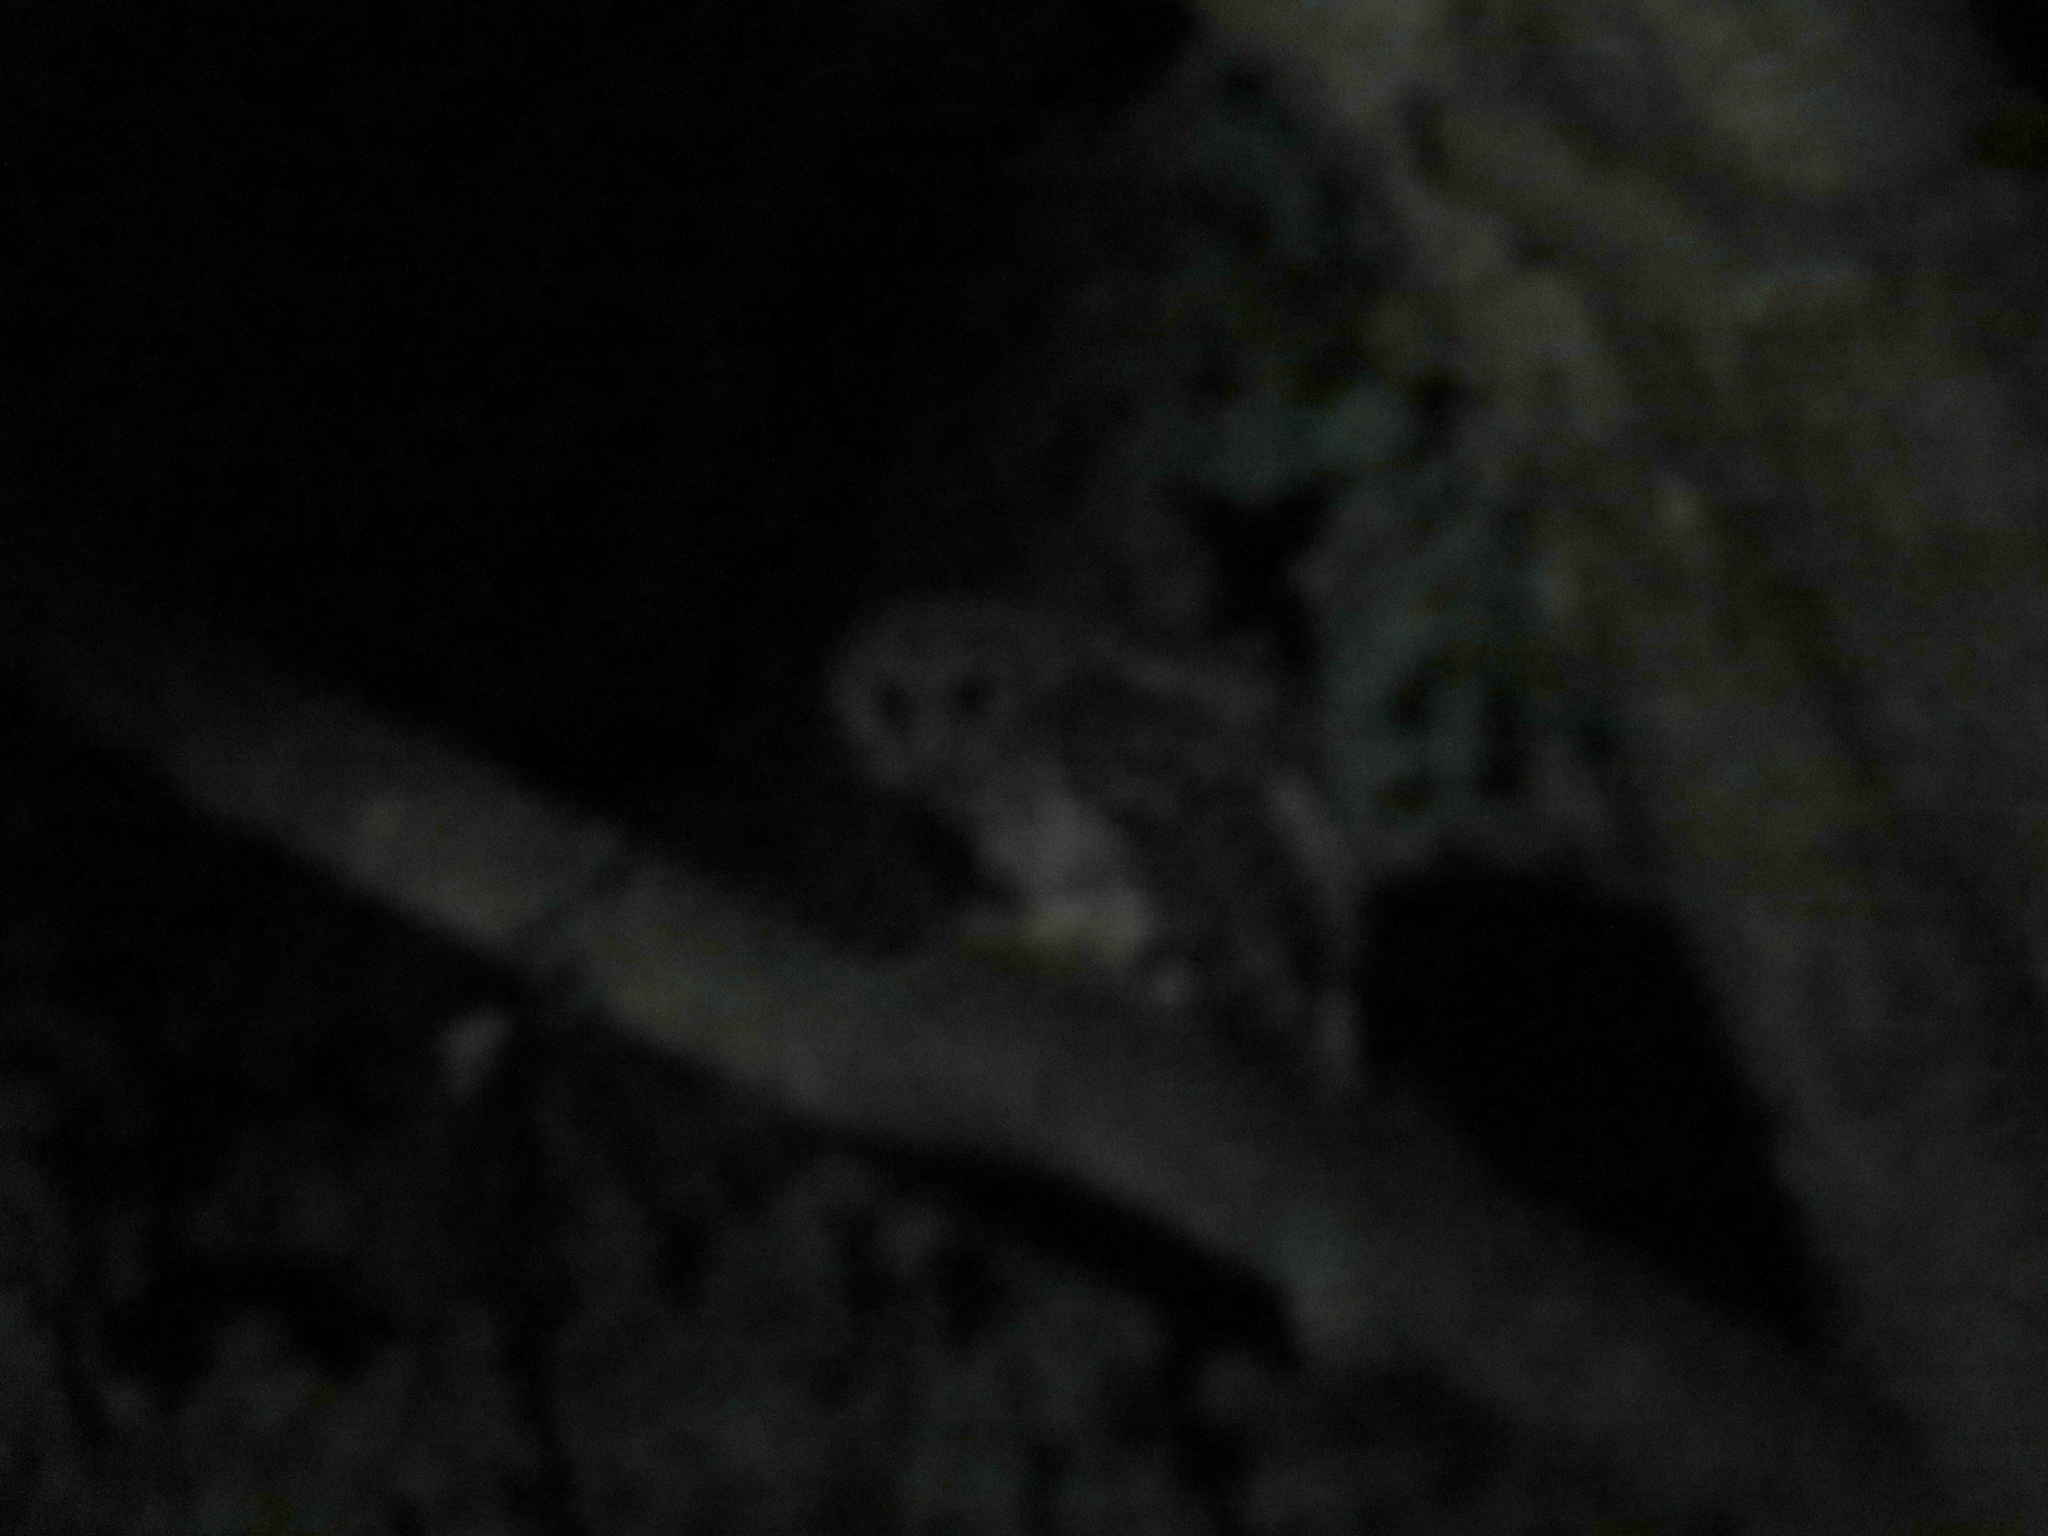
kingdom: Animalia
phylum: Chordata
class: Aves
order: Strigiformes
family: Strigidae
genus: Strix
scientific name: Strix varia
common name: Barred owl
